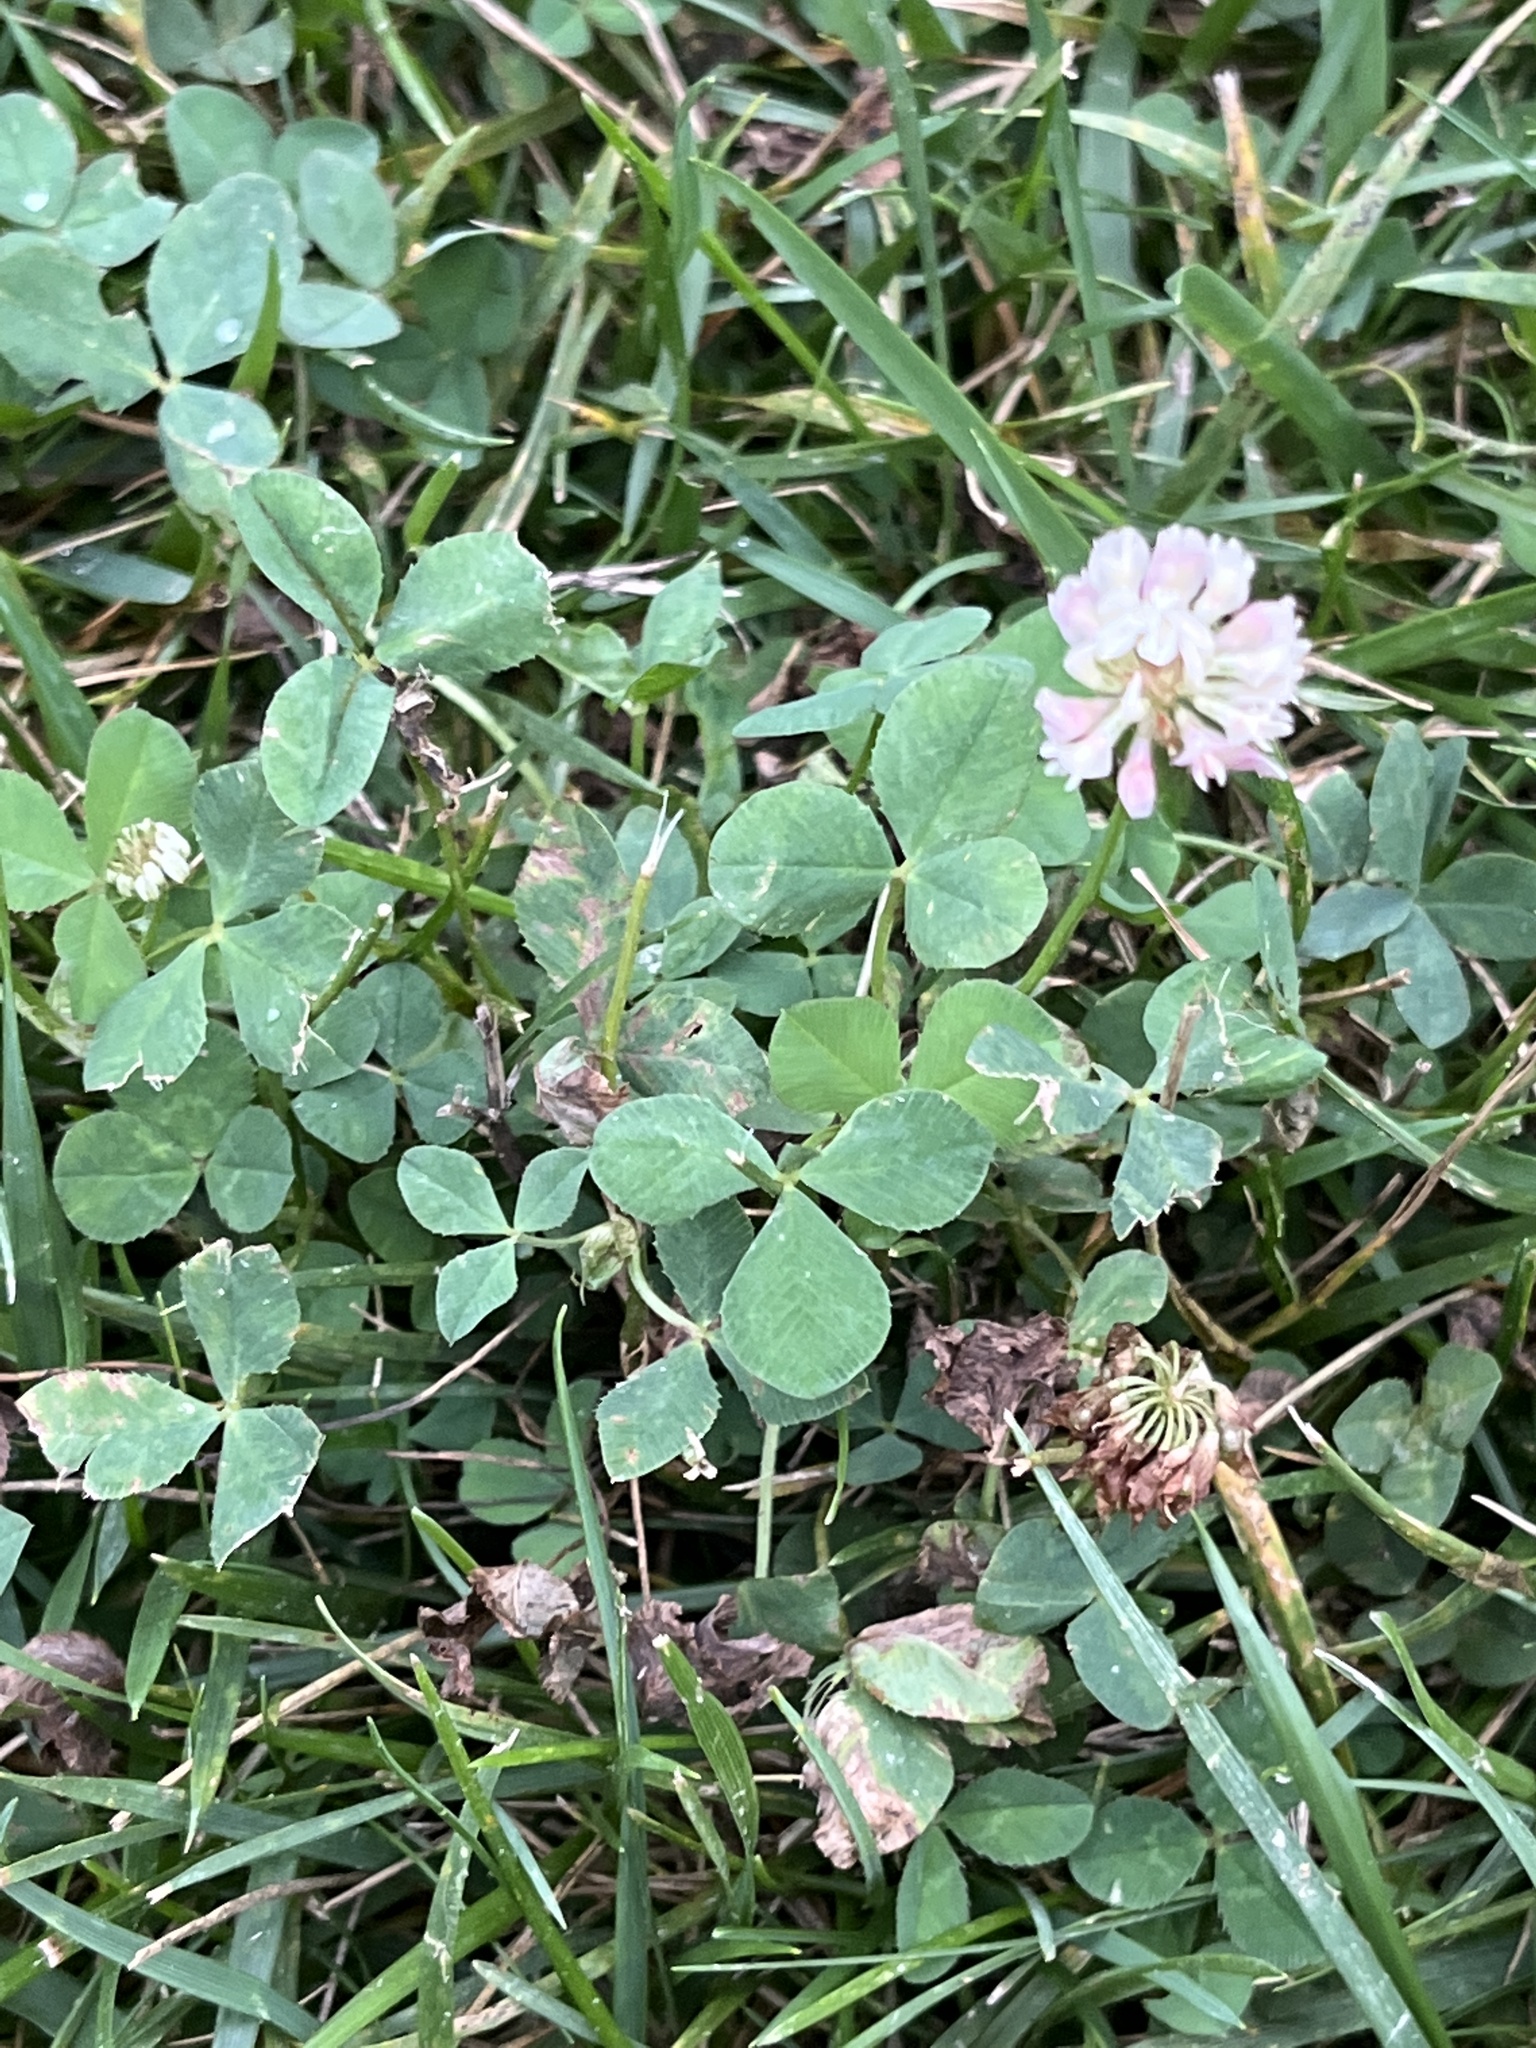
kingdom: Plantae
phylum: Tracheophyta
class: Magnoliopsida
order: Fabales
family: Fabaceae
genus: Trifolium
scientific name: Trifolium repens
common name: White clover
